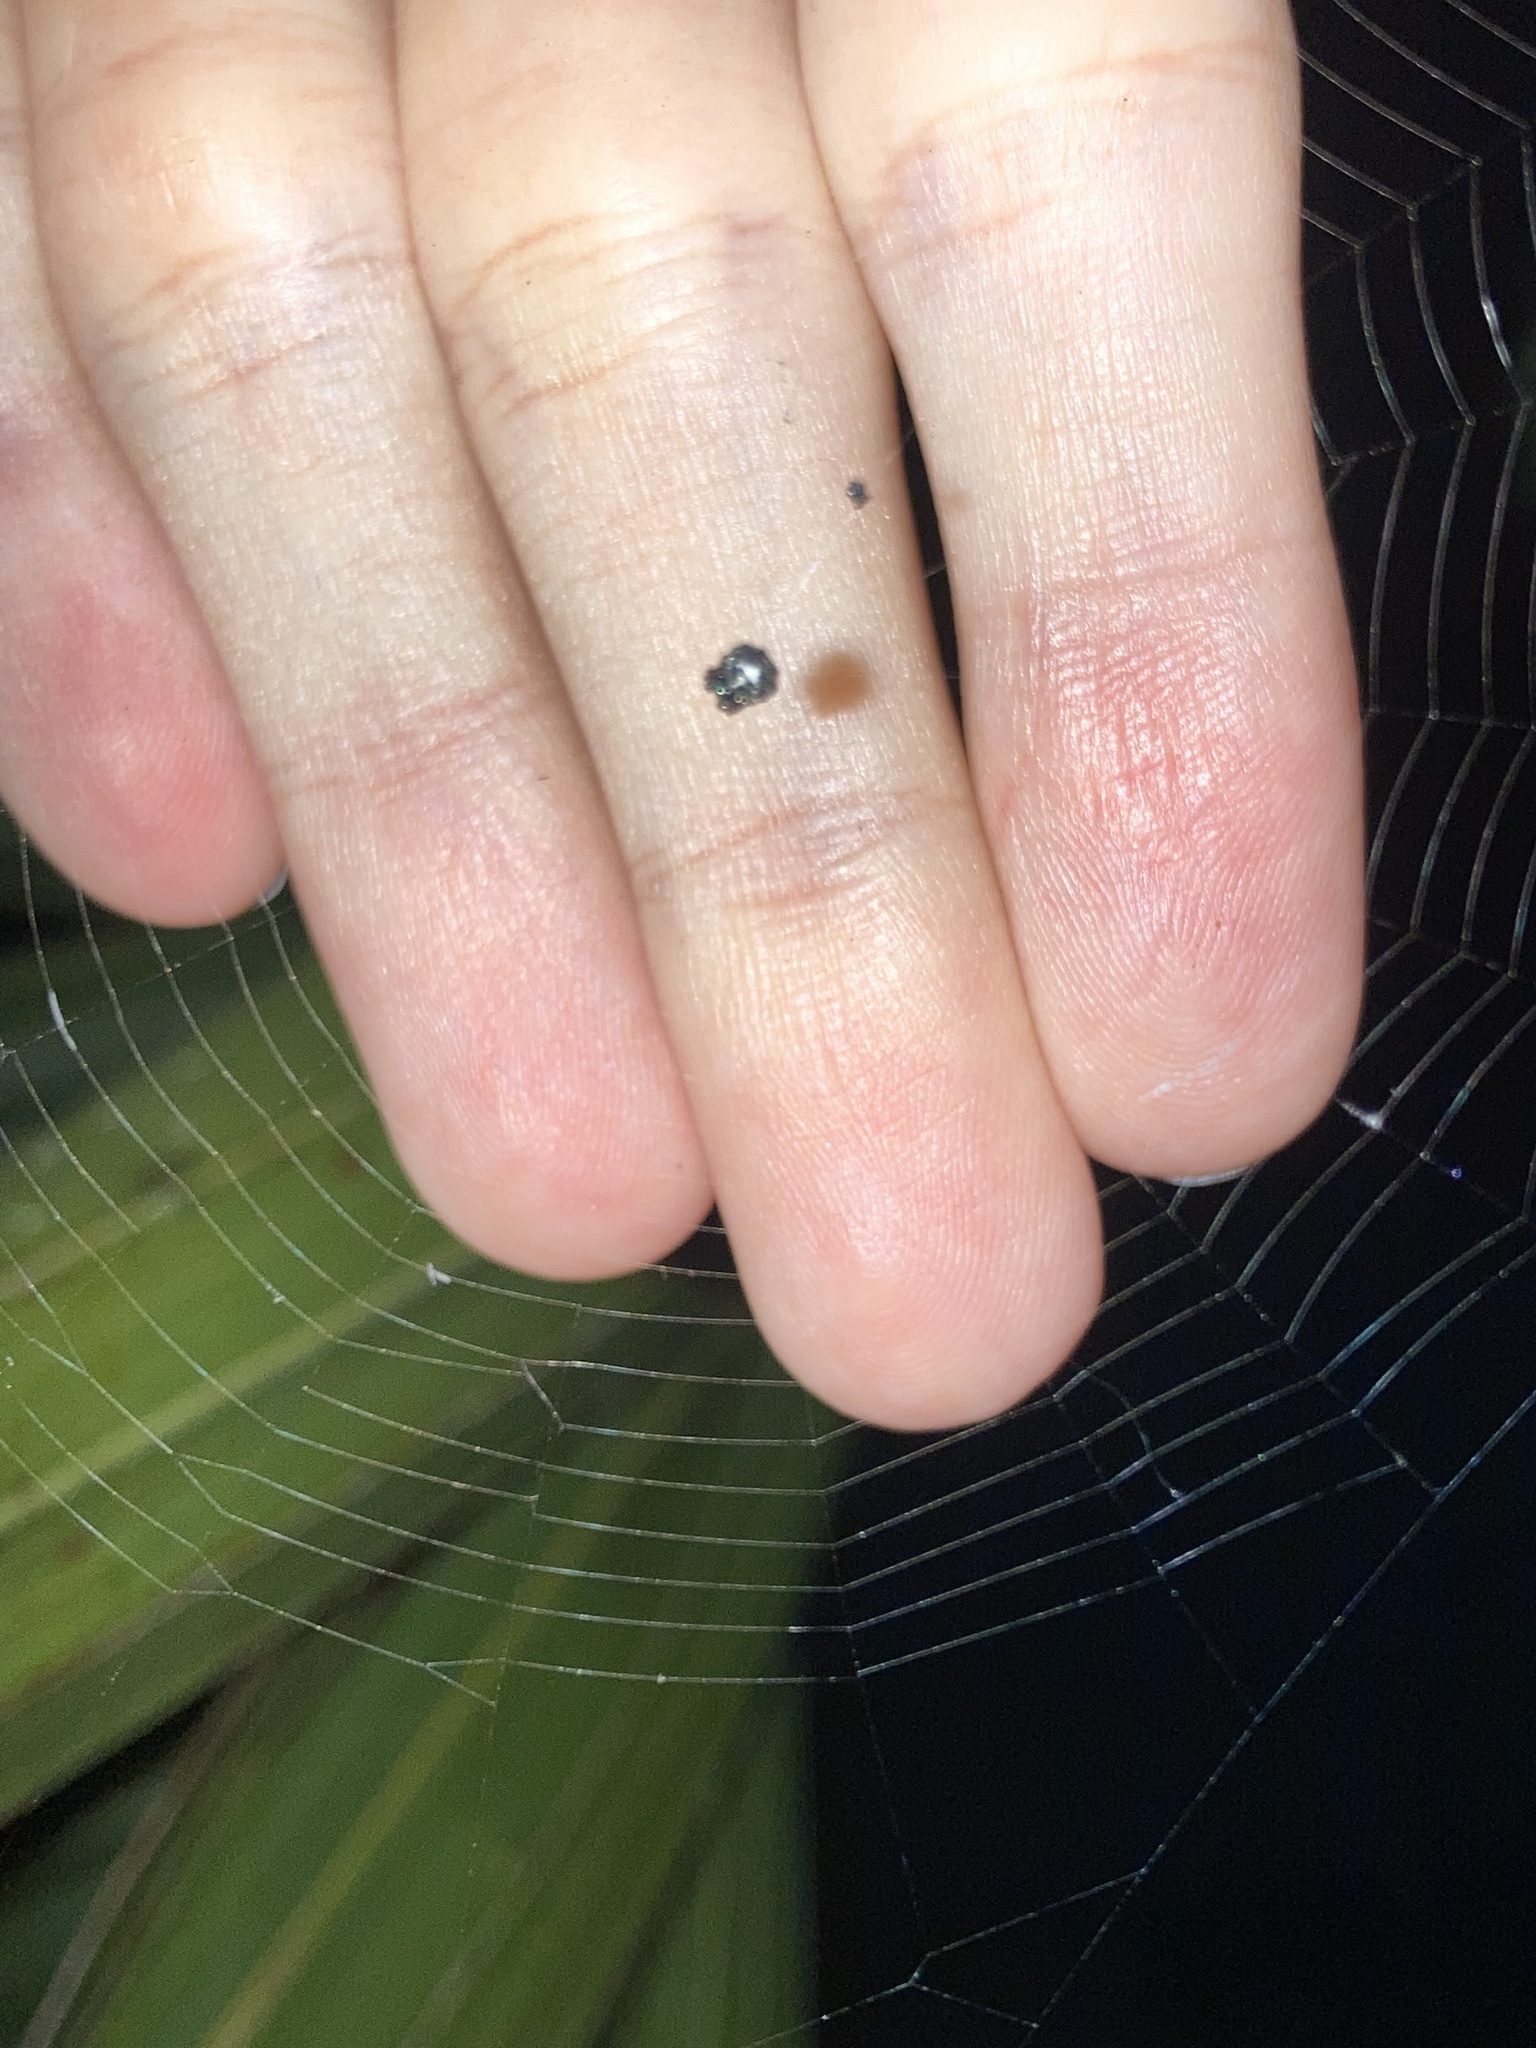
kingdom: Animalia
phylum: Arthropoda
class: Arachnida
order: Araneae
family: Araneidae
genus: Gasteracantha
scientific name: Gasteracantha cancriformis
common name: Orb weavers
